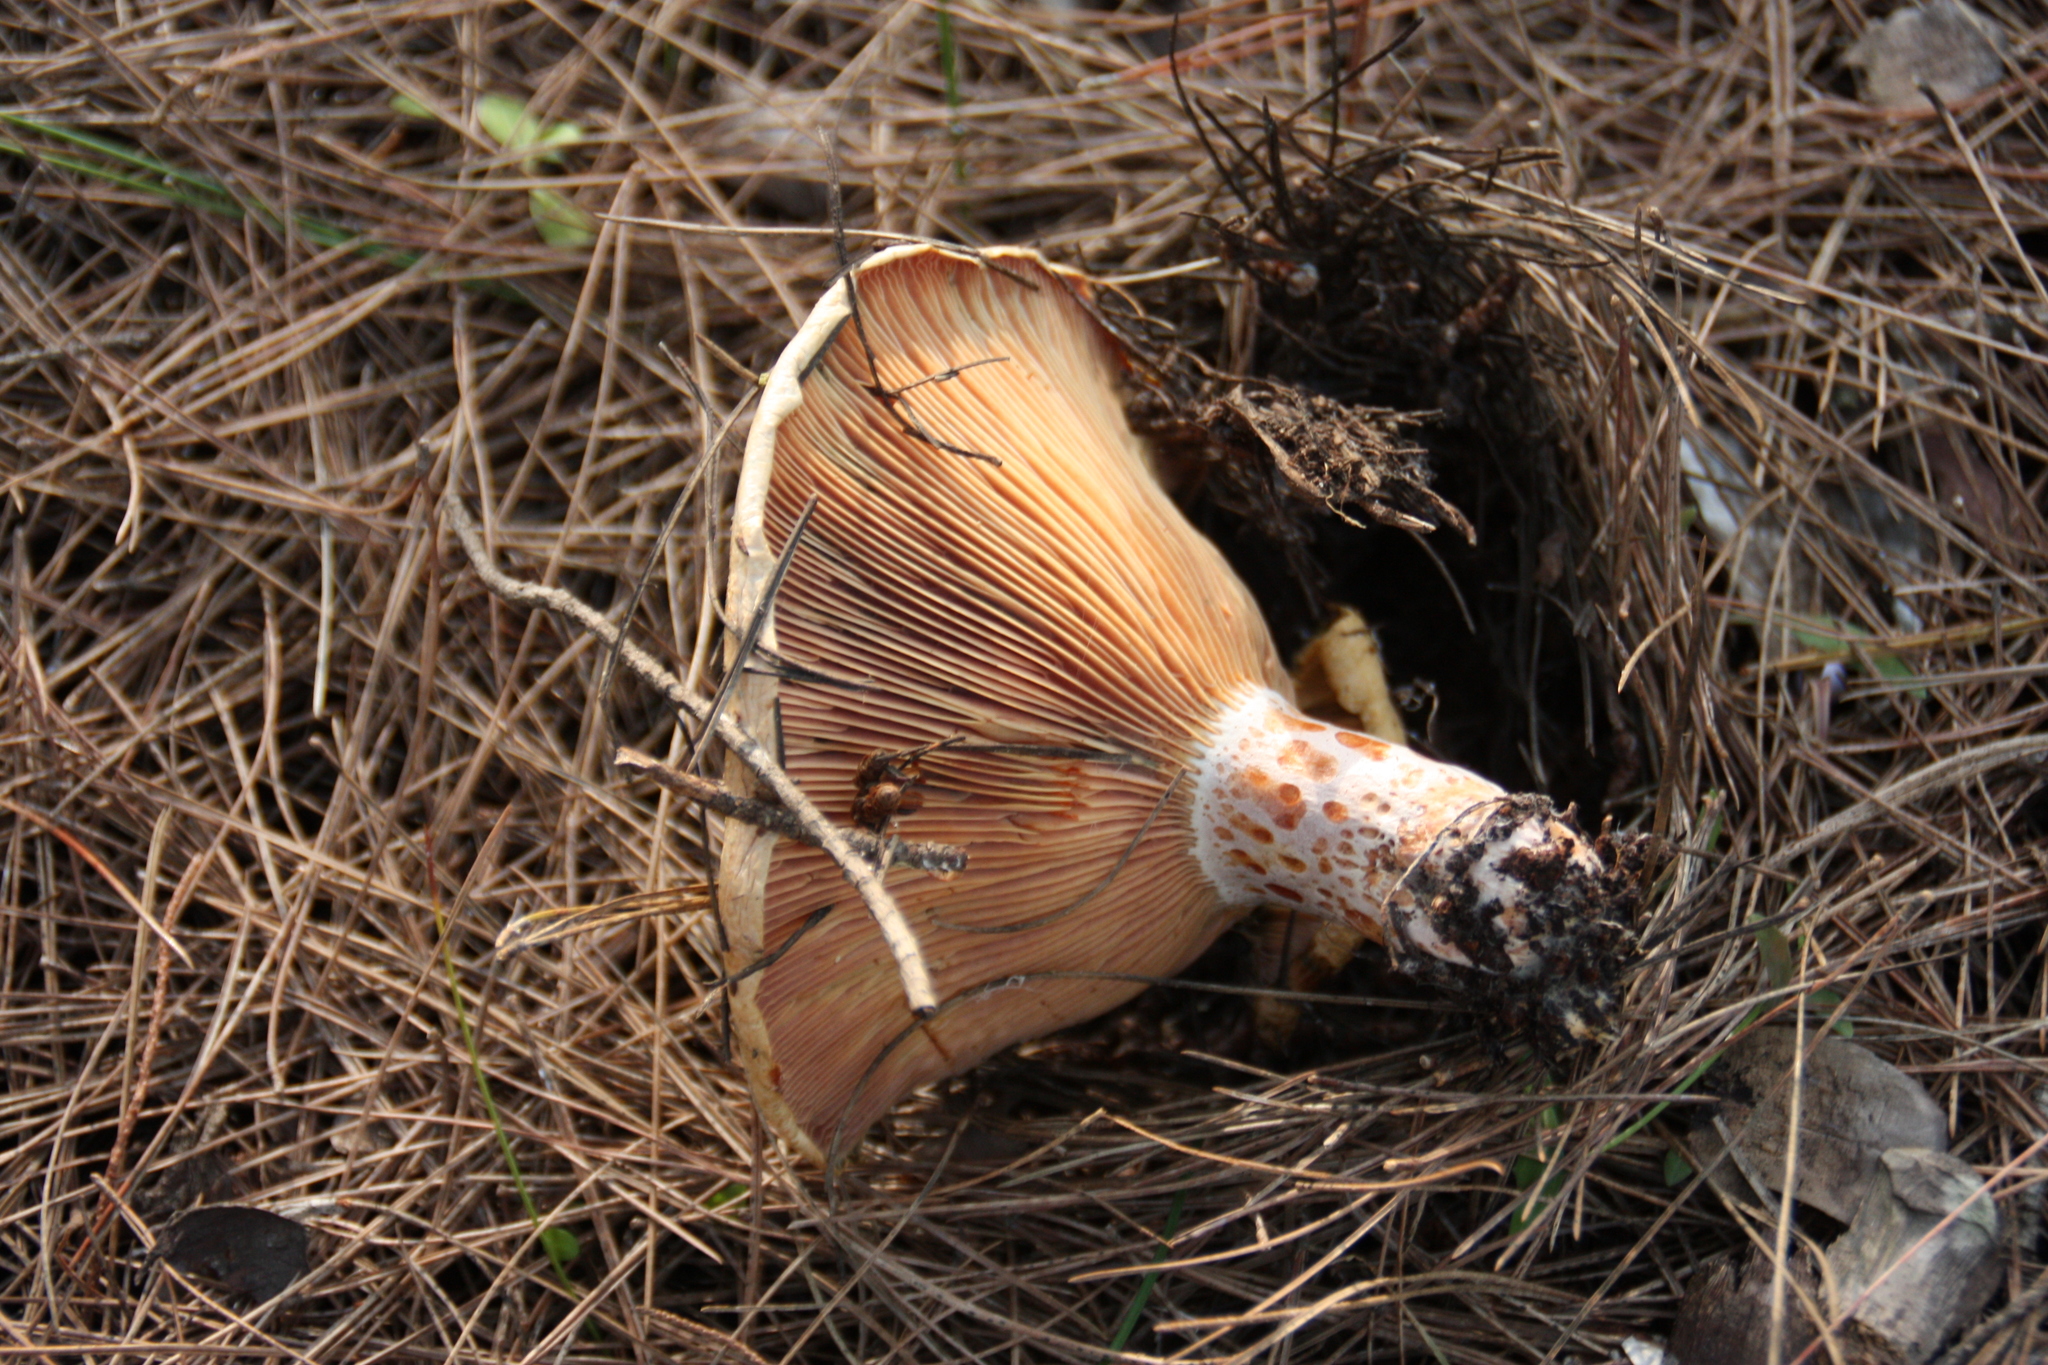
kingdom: Fungi
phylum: Basidiomycota
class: Agaricomycetes
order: Russulales
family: Russulaceae
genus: Lactarius
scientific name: Lactarius deliciosus
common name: Saffron milk-cap
